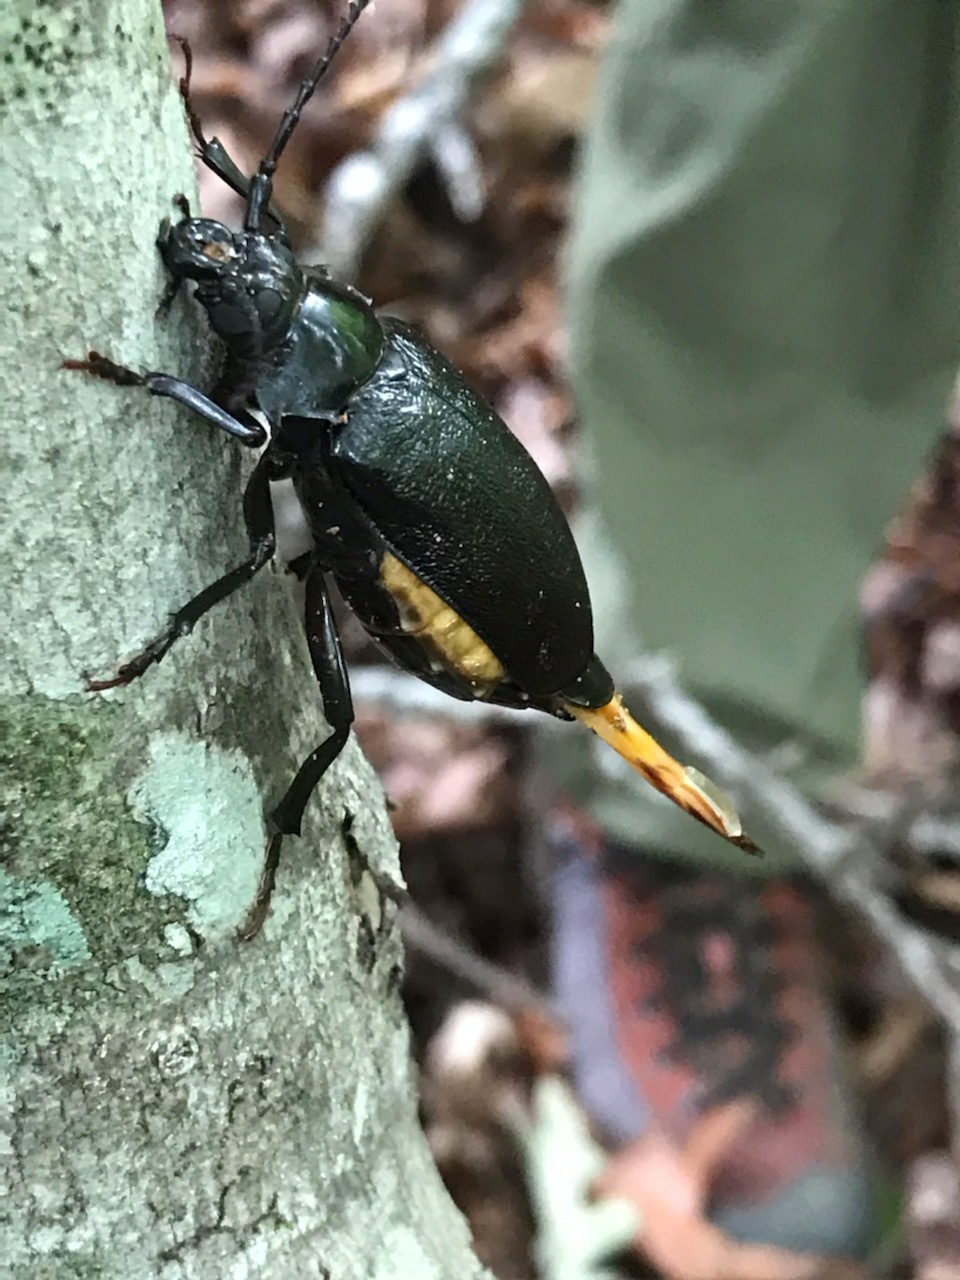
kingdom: Animalia
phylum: Arthropoda
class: Insecta
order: Coleoptera
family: Cerambycidae
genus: Prionus
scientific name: Prionus laticollis
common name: Broad necked prionus
